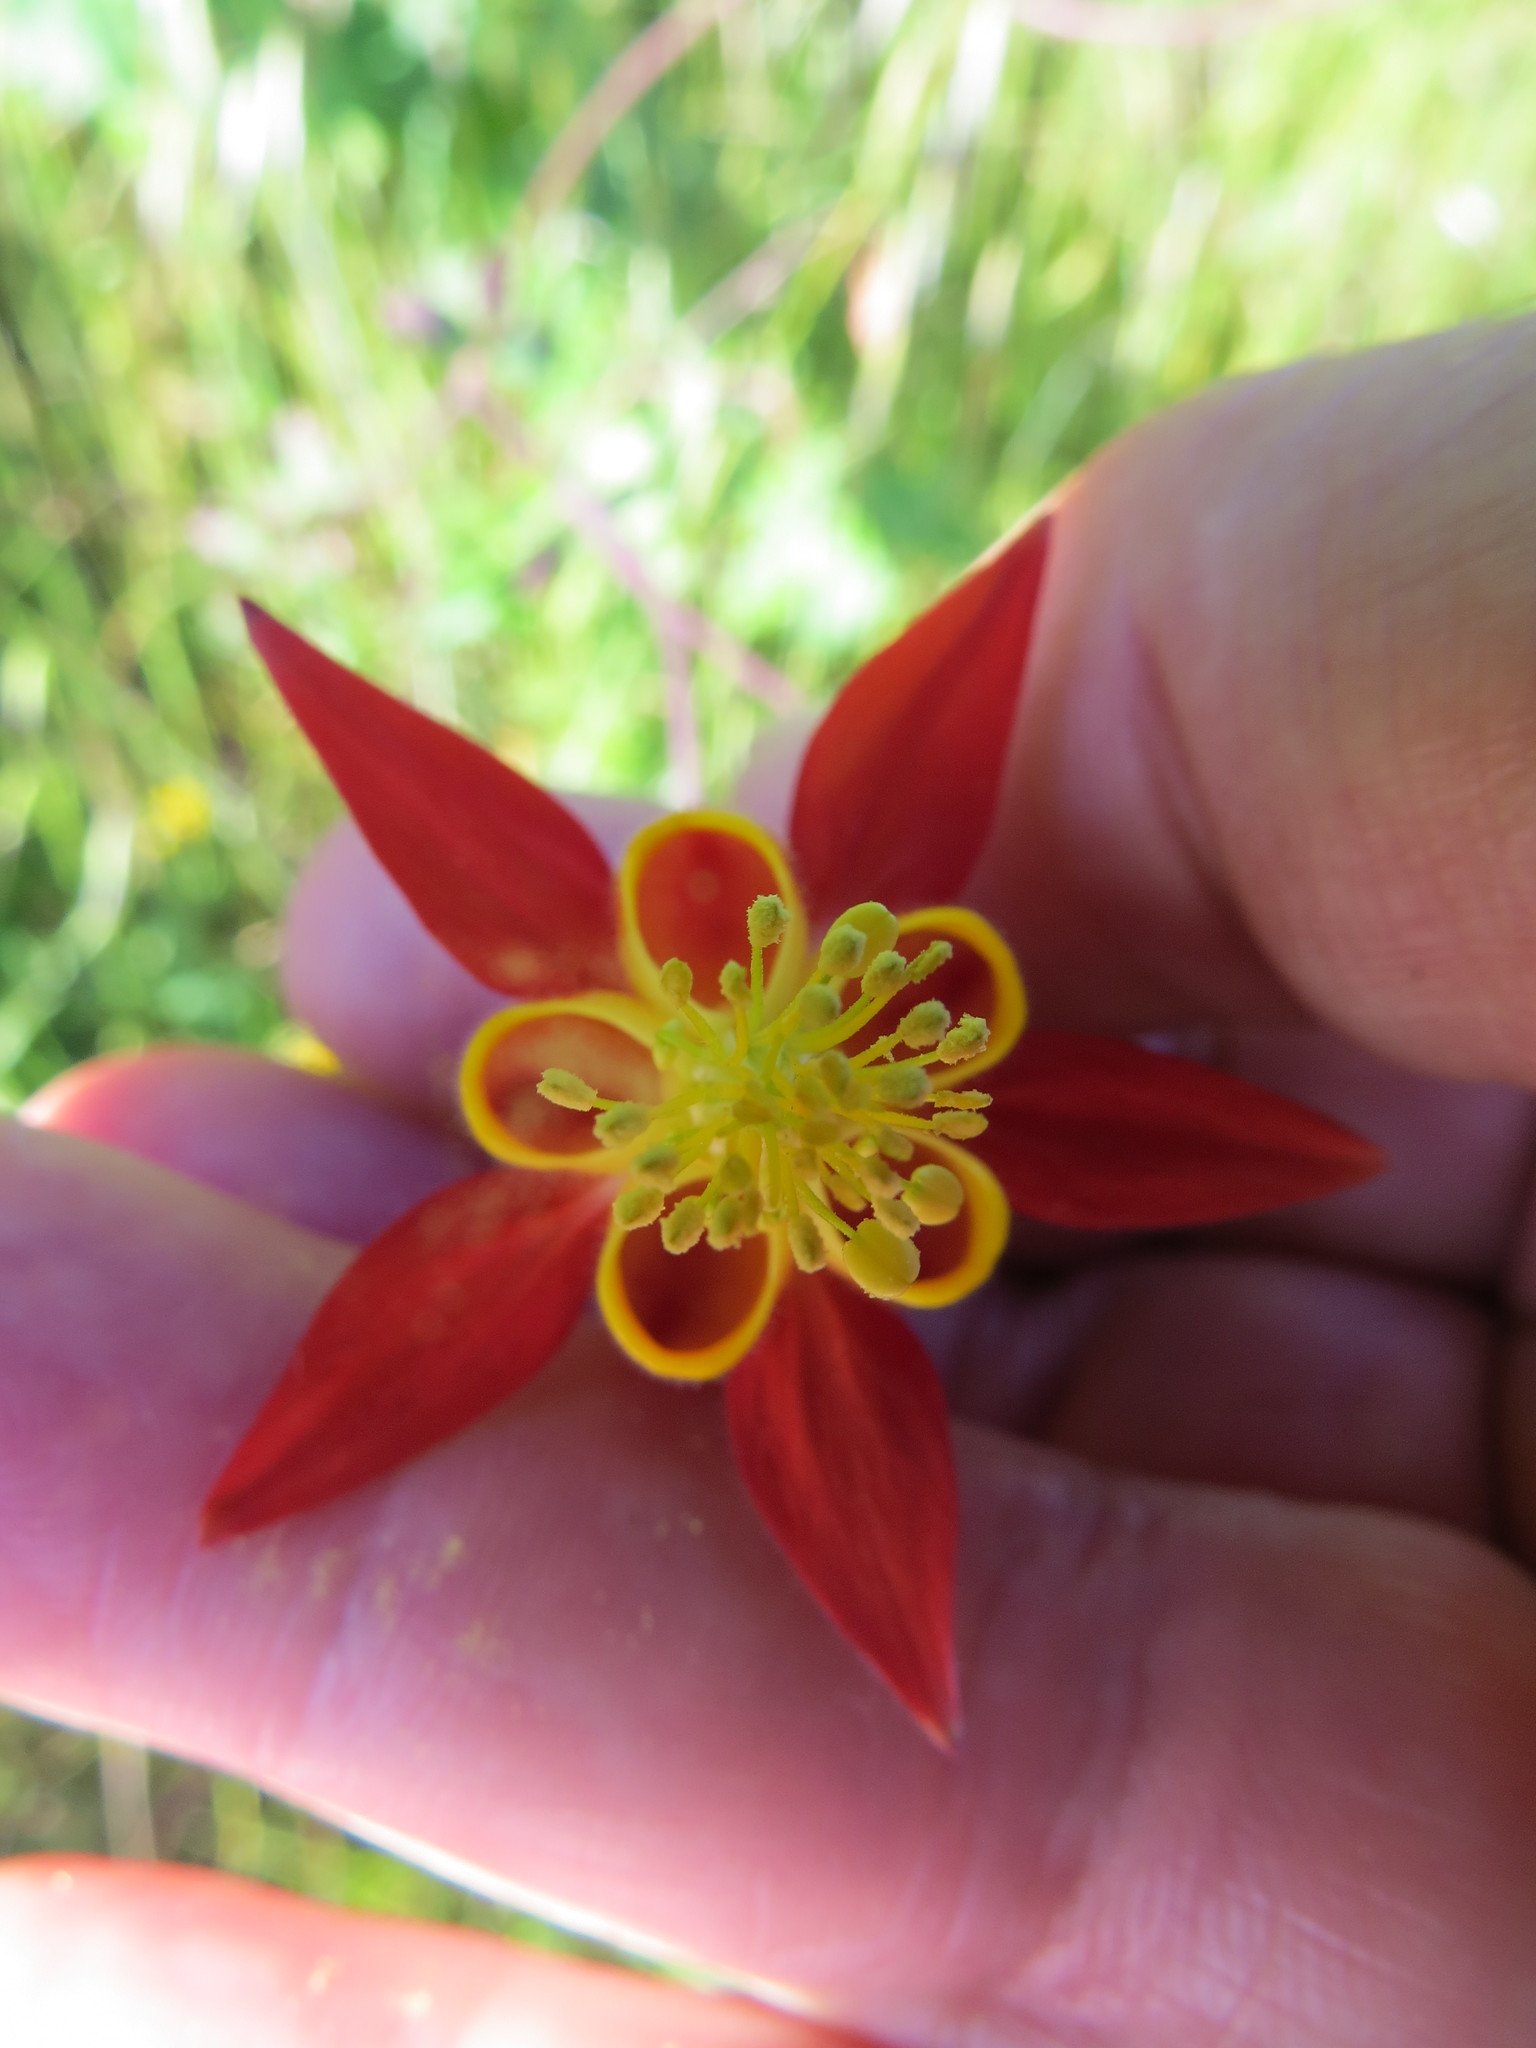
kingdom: Plantae
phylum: Tracheophyta
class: Magnoliopsida
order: Ranunculales
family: Ranunculaceae
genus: Aquilegia
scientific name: Aquilegia formosa
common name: Sitka columbine
